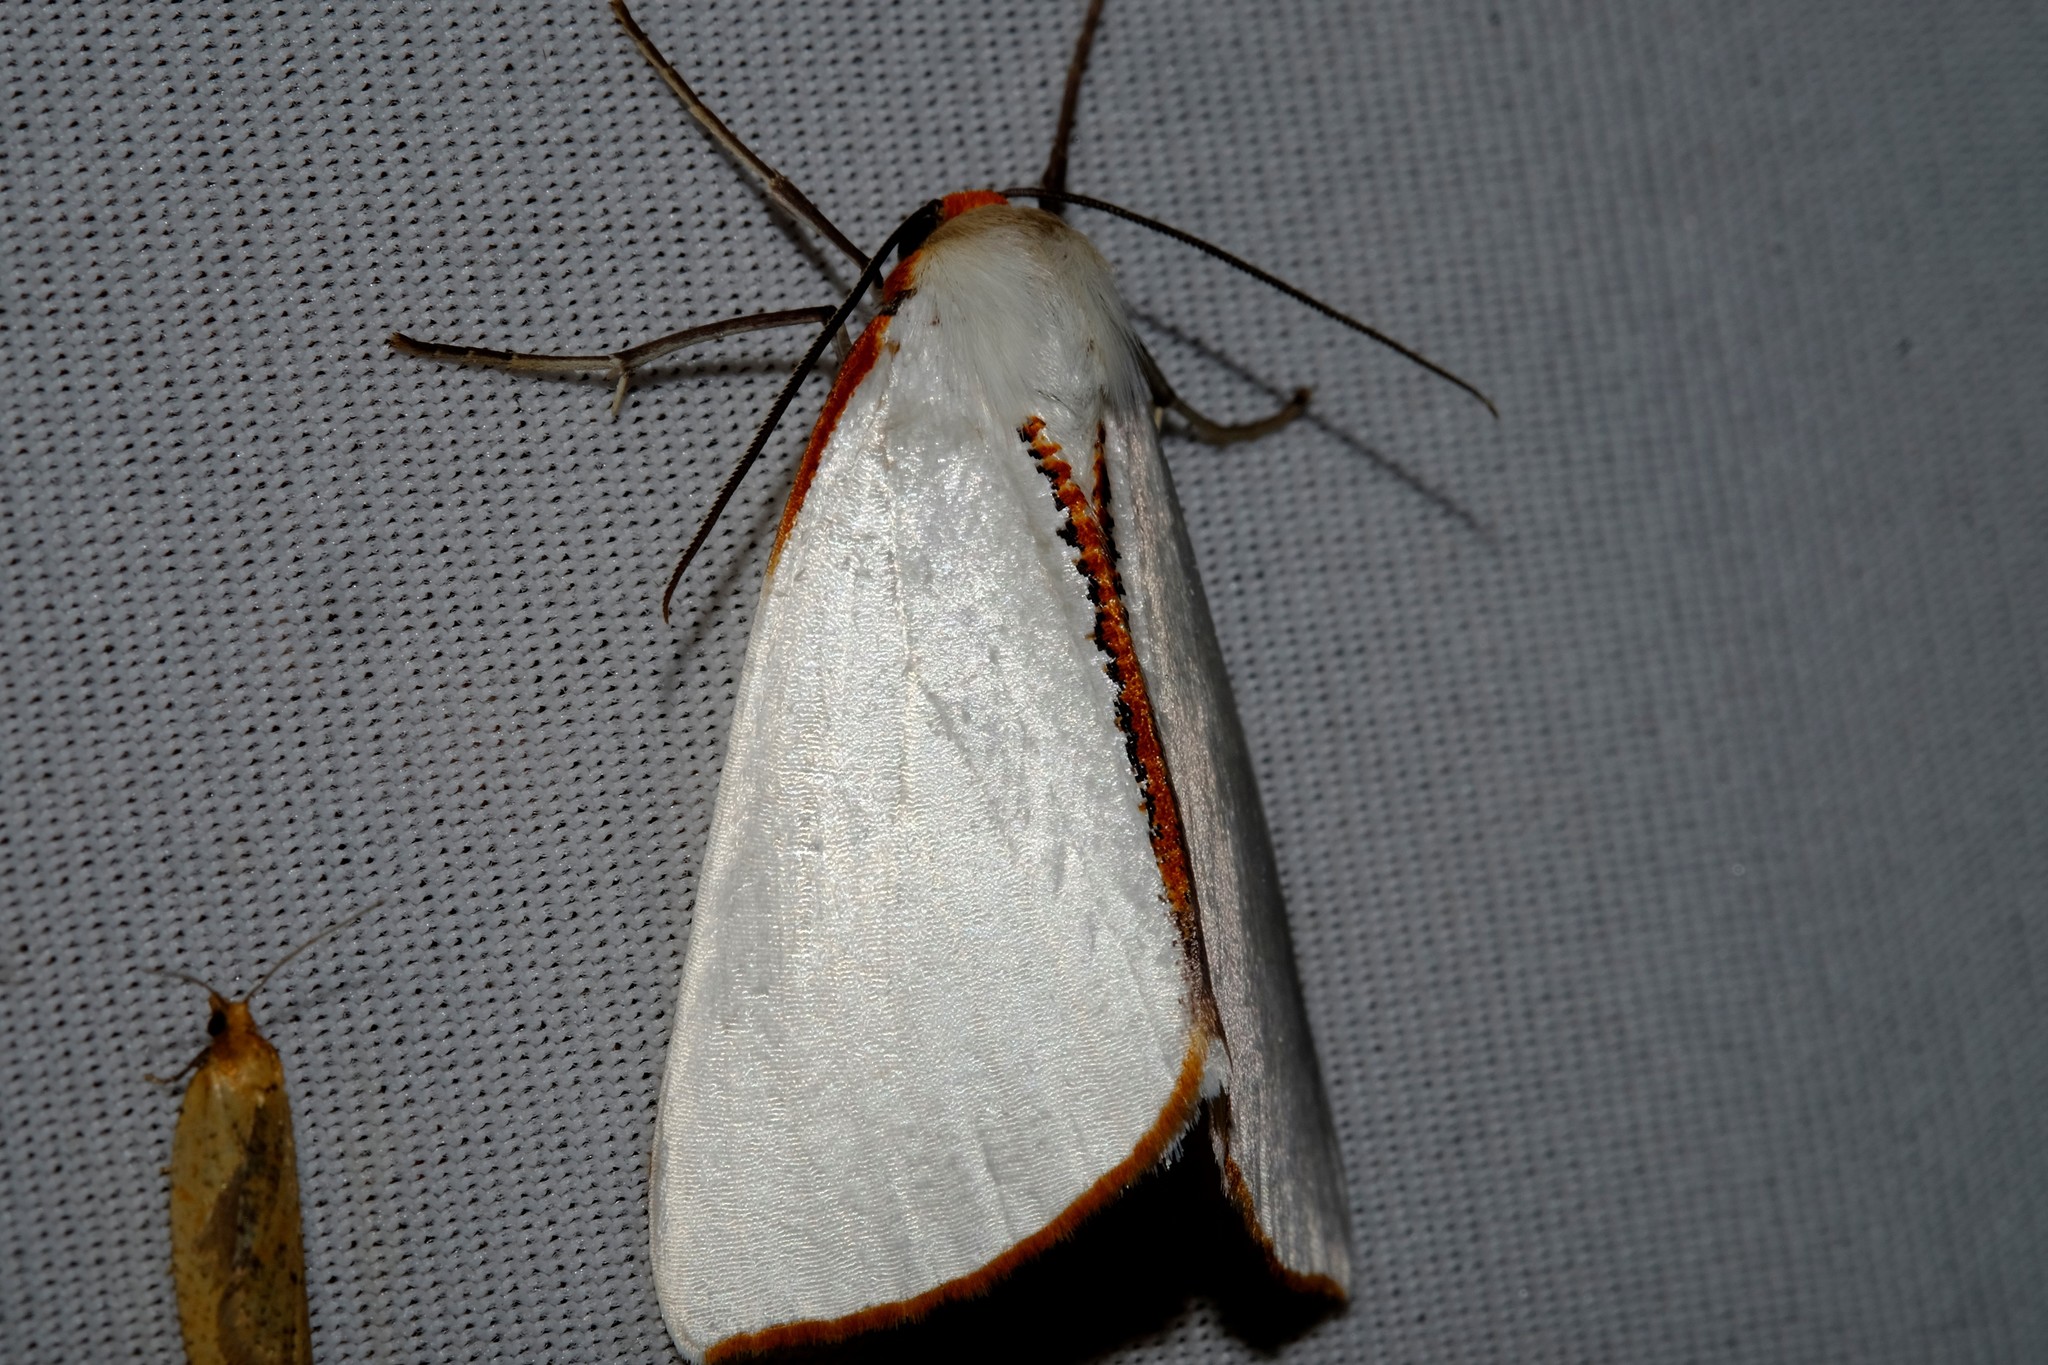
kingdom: Animalia
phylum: Arthropoda
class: Insecta
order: Lepidoptera
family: Geometridae
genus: Thalaina
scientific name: Thalaina selenaea
